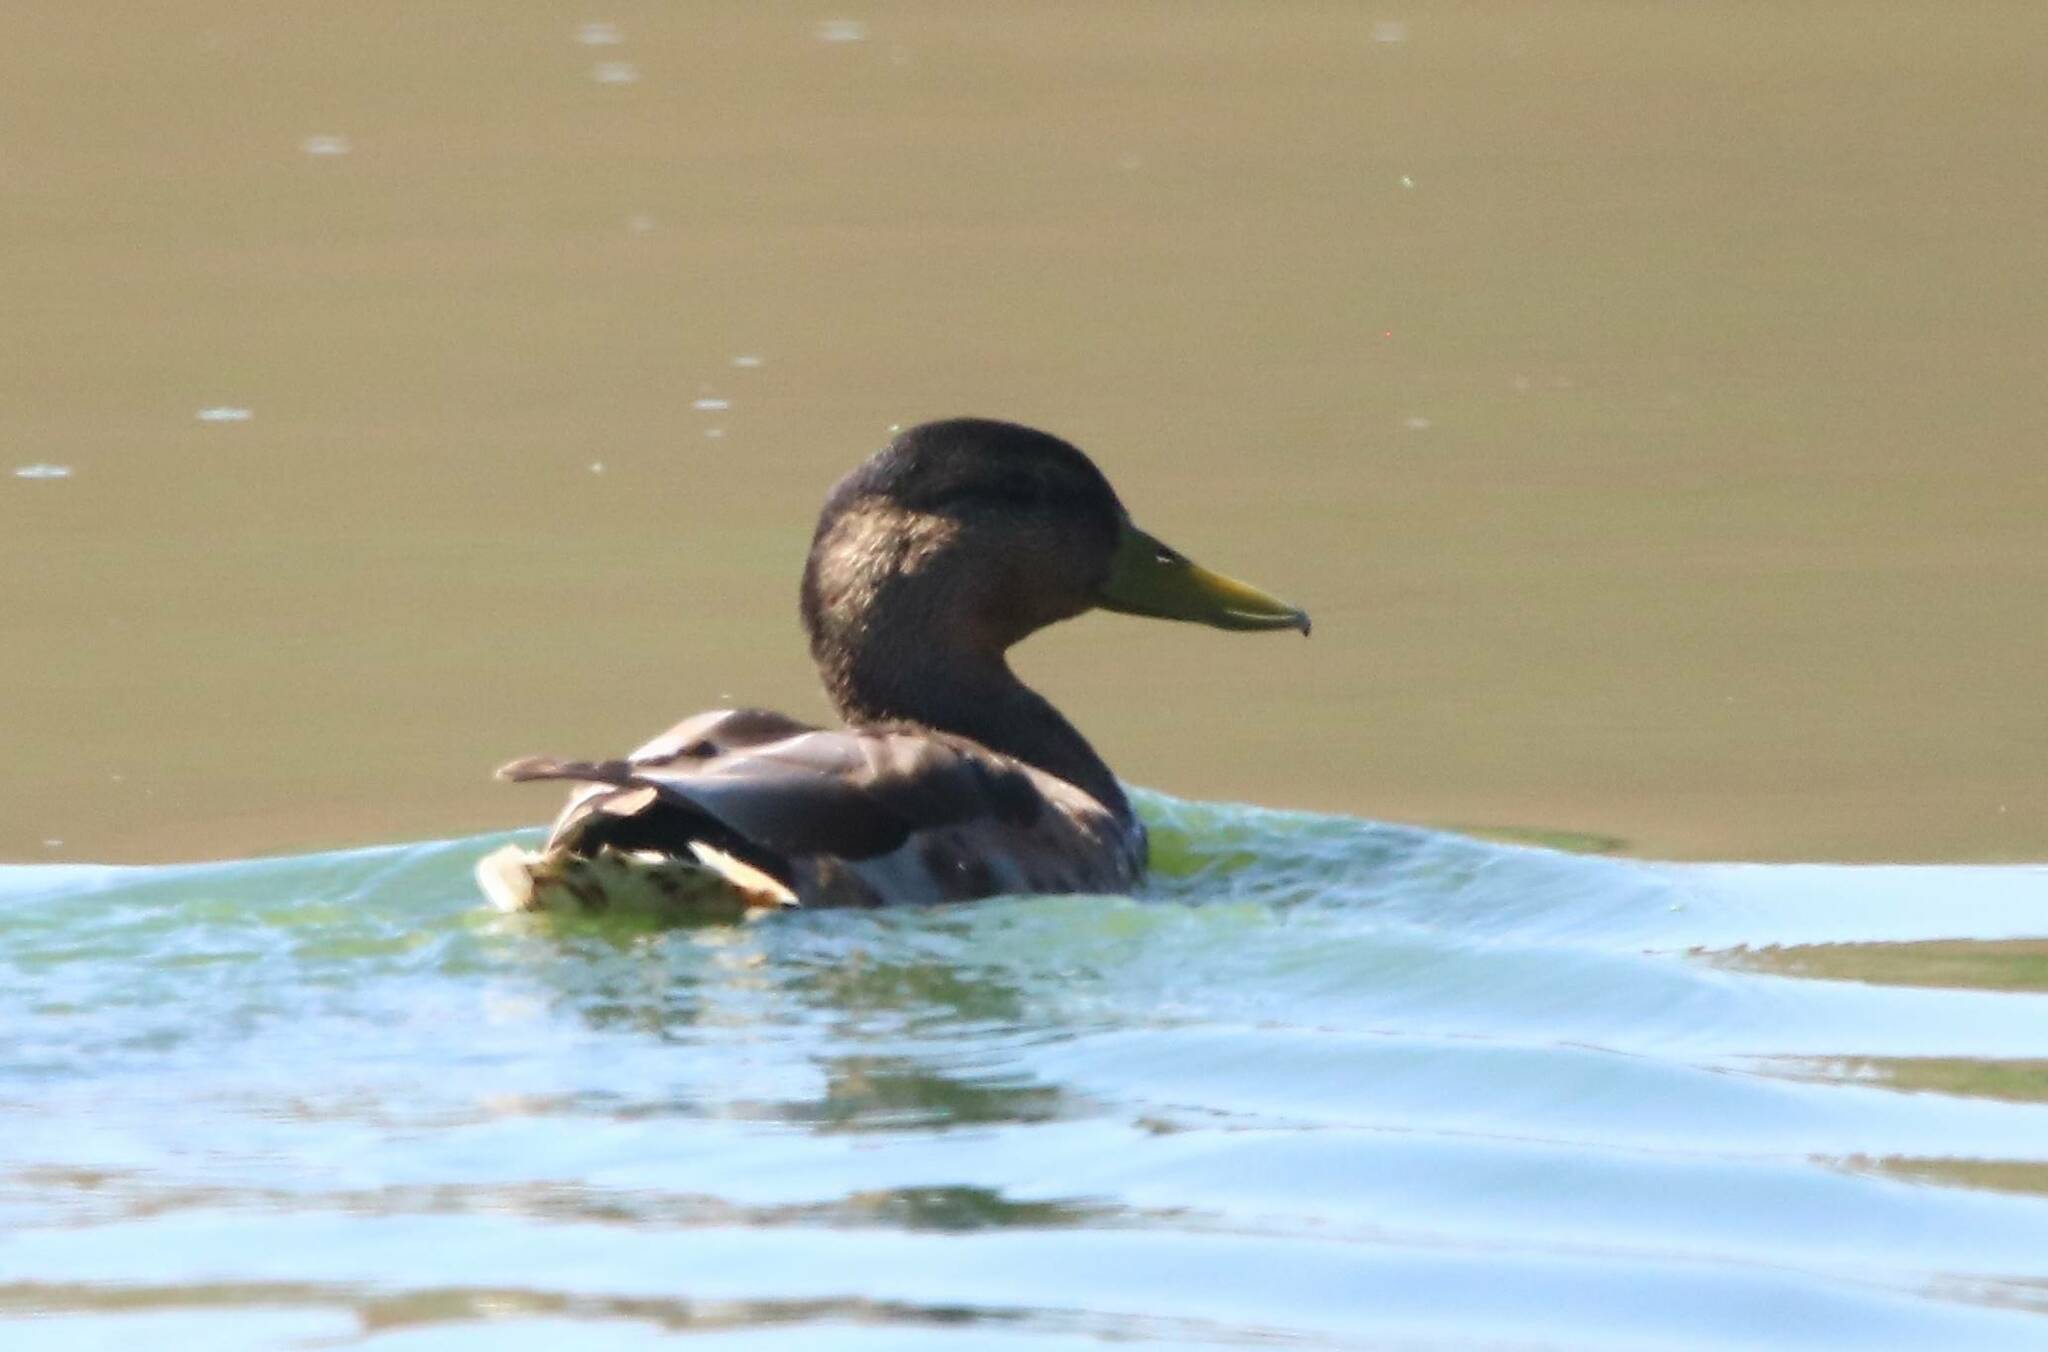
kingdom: Animalia
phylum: Chordata
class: Aves
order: Anseriformes
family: Anatidae
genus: Anas
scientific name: Anas platyrhynchos
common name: Mallard
